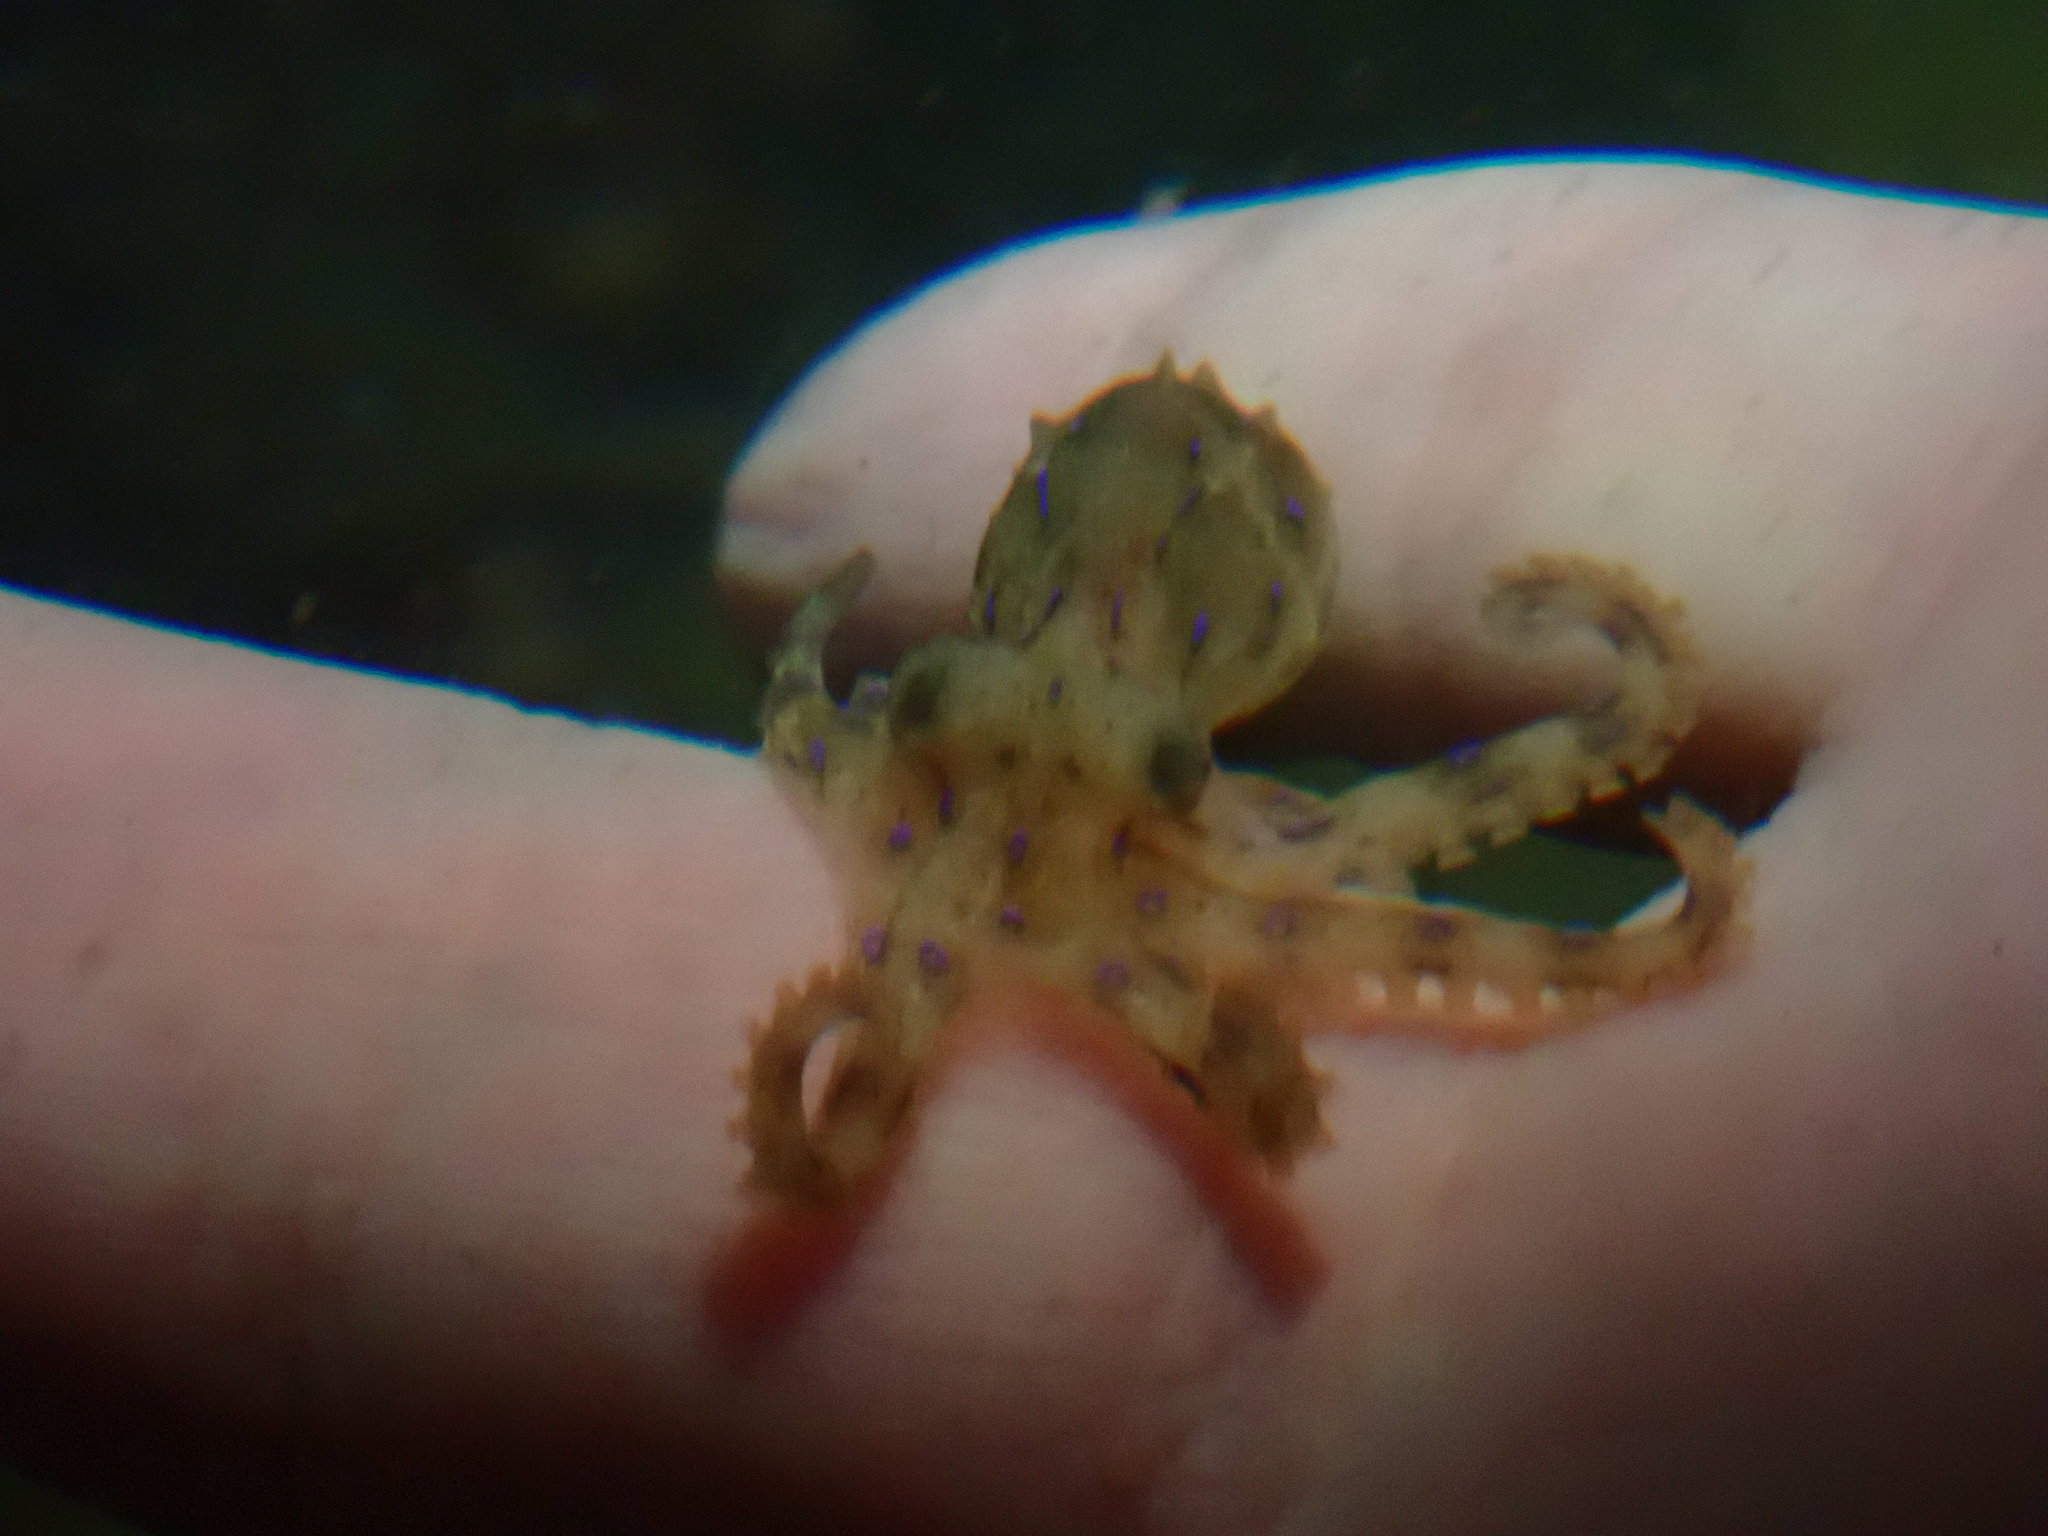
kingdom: Animalia
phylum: Mollusca
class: Cephalopoda
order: Octopoda
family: Octopodidae
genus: Hapalochlaena
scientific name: Hapalochlaena fasciata
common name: Blue-lined octopus
